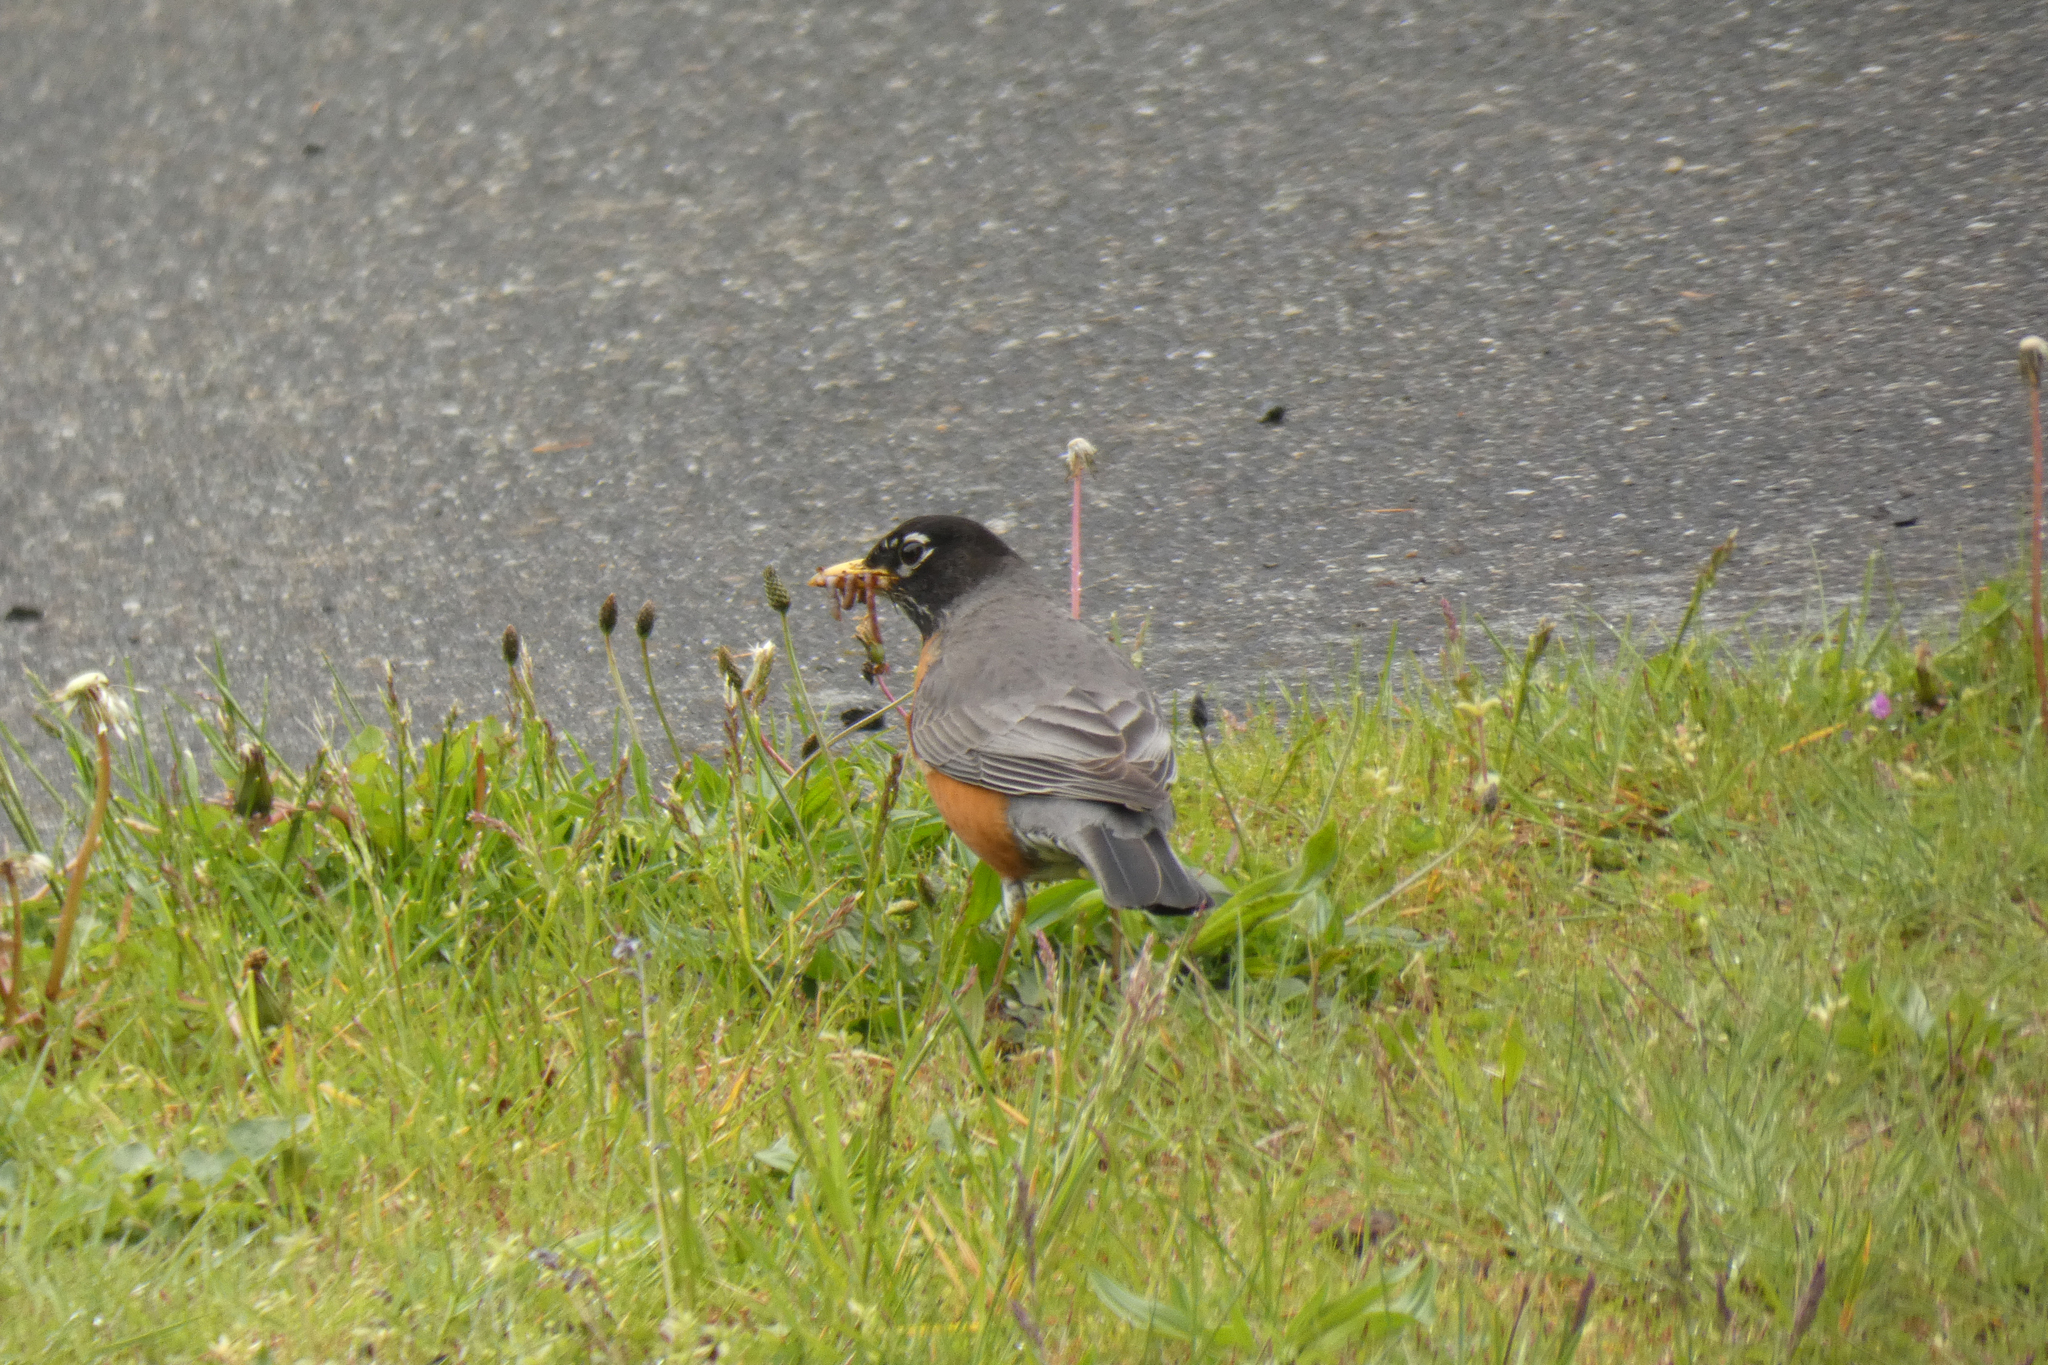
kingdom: Animalia
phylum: Chordata
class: Aves
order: Passeriformes
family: Turdidae
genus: Turdus
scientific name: Turdus migratorius
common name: American robin
